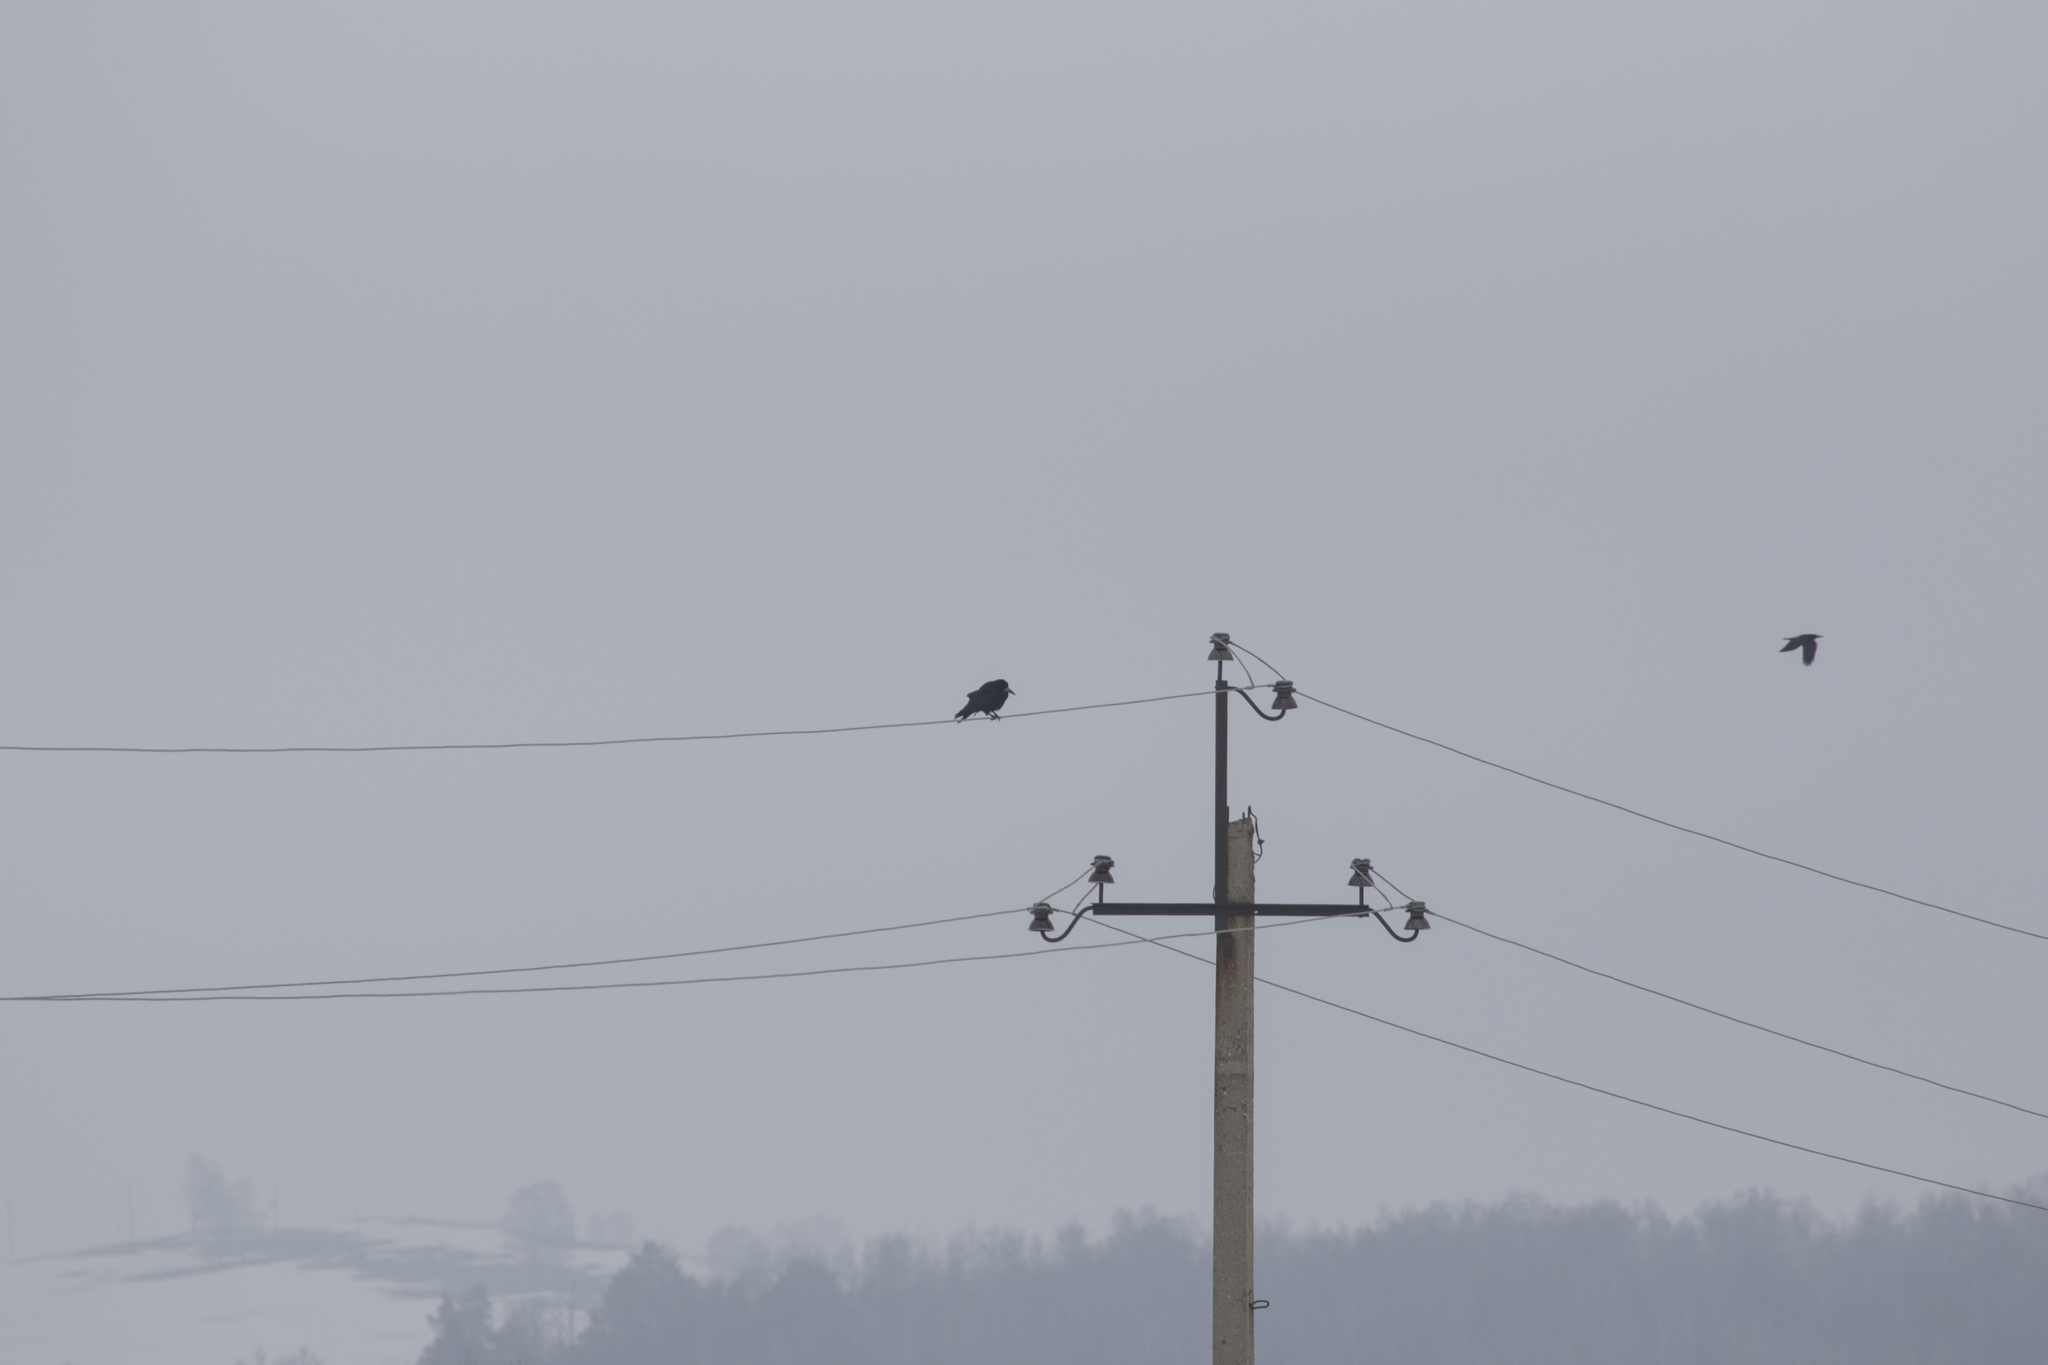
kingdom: Animalia
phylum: Chordata
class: Aves
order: Passeriformes
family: Corvidae
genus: Corvus
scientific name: Corvus frugilegus
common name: Rook
